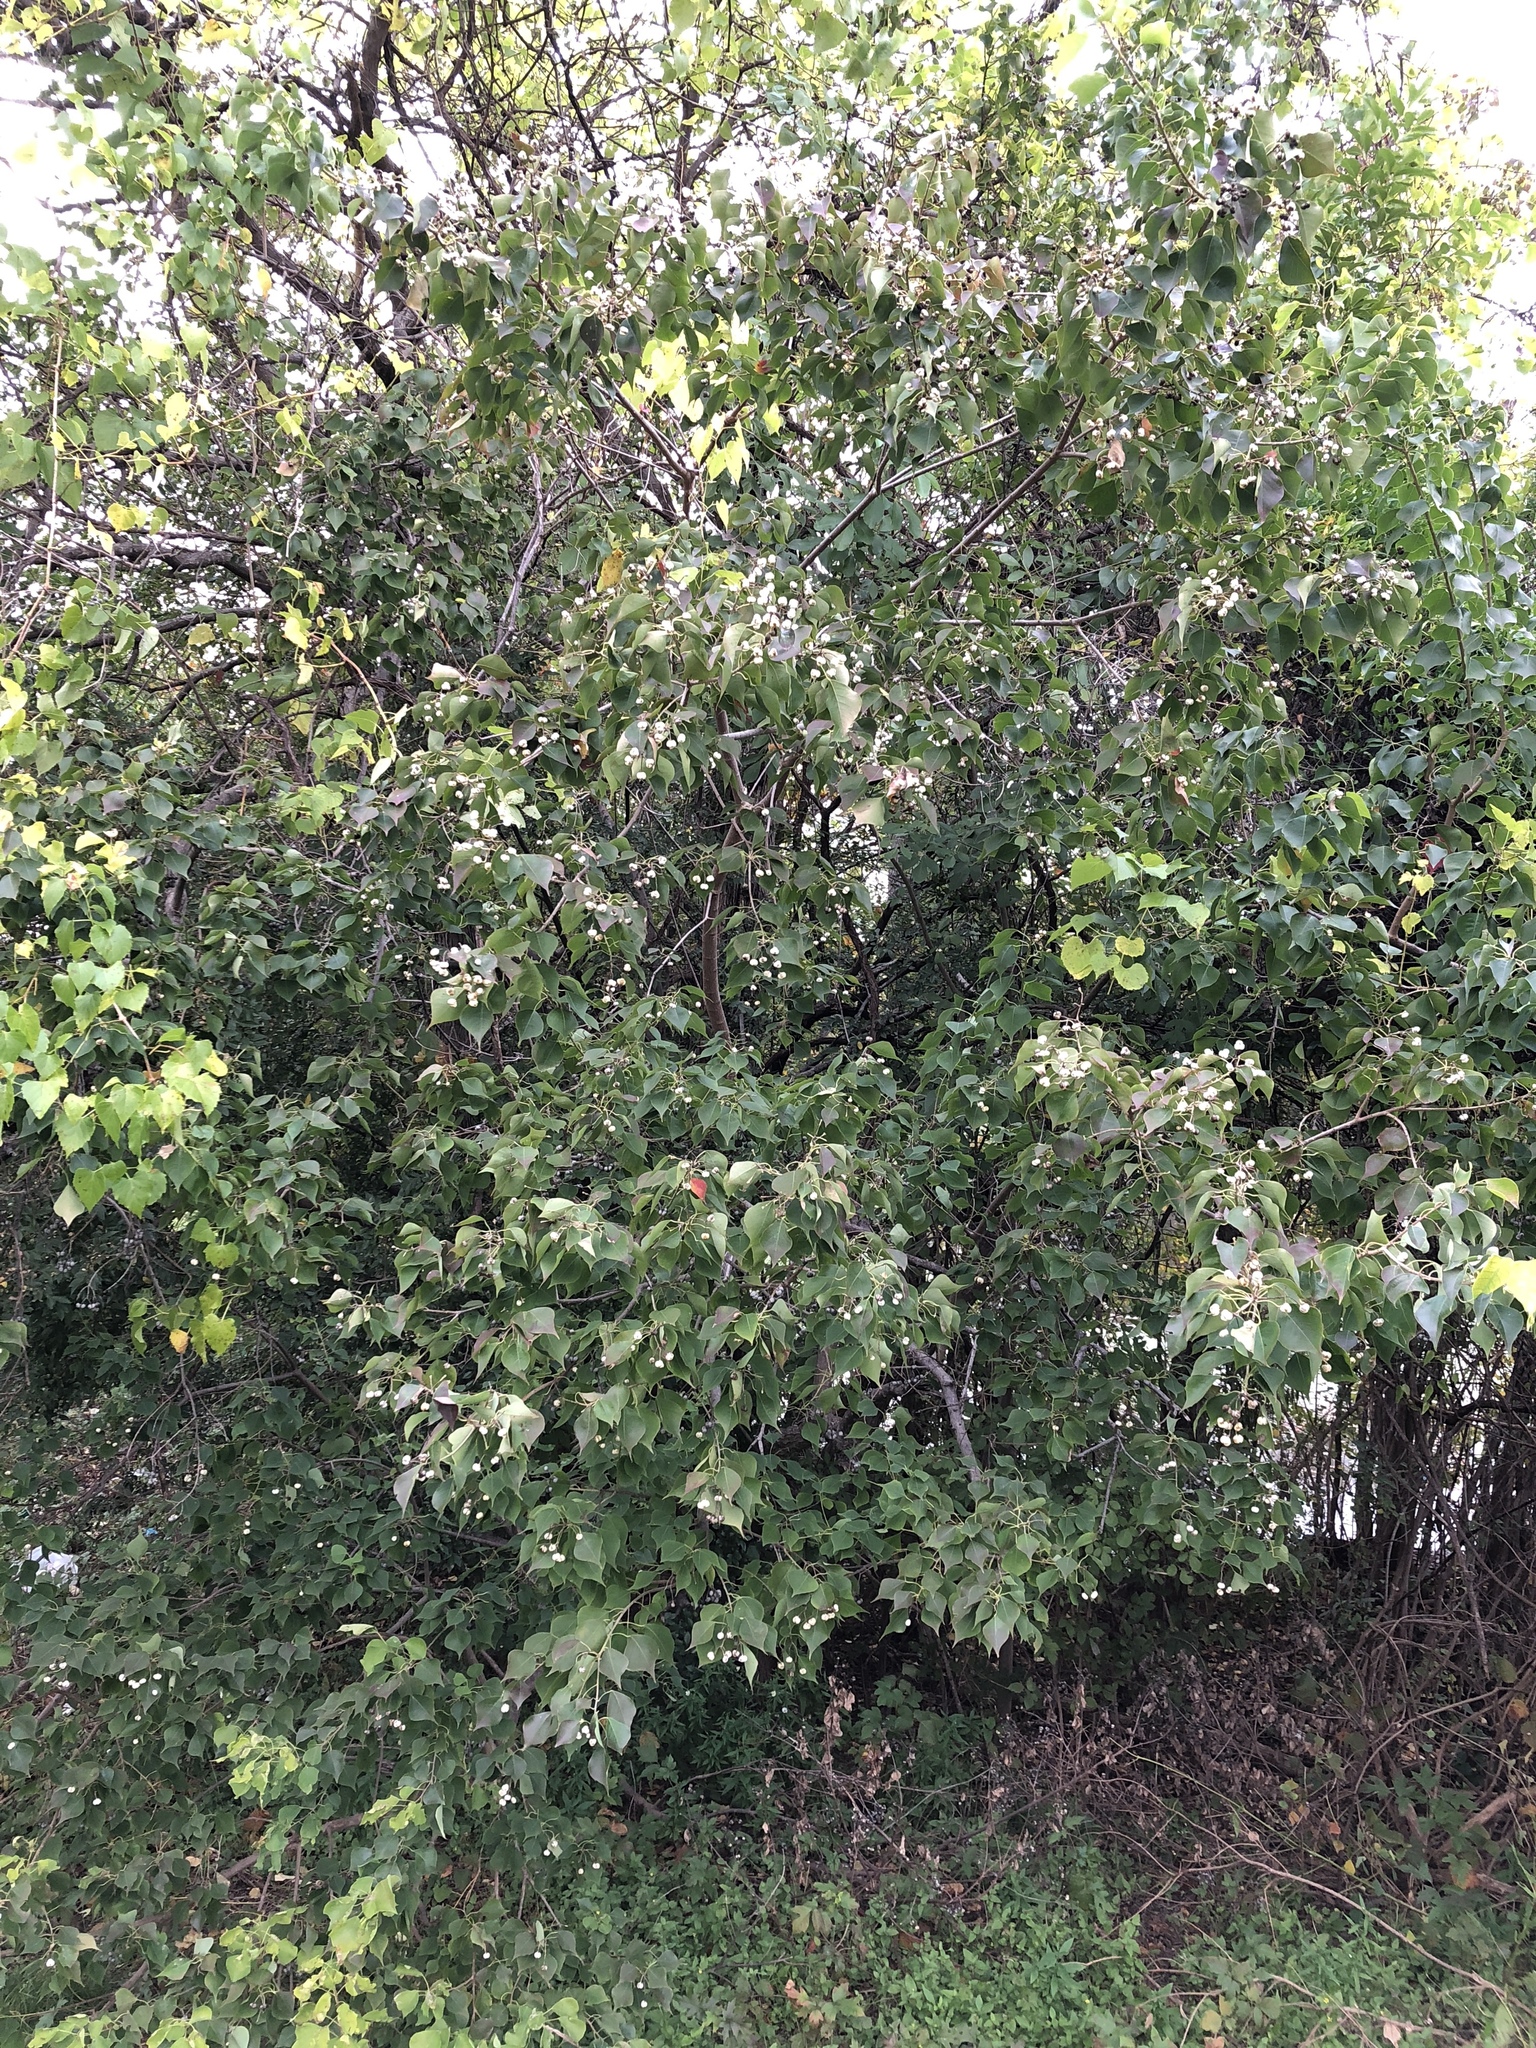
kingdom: Plantae
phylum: Tracheophyta
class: Magnoliopsida
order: Malpighiales
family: Euphorbiaceae
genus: Triadica
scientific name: Triadica sebifera
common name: Chinese tallow
